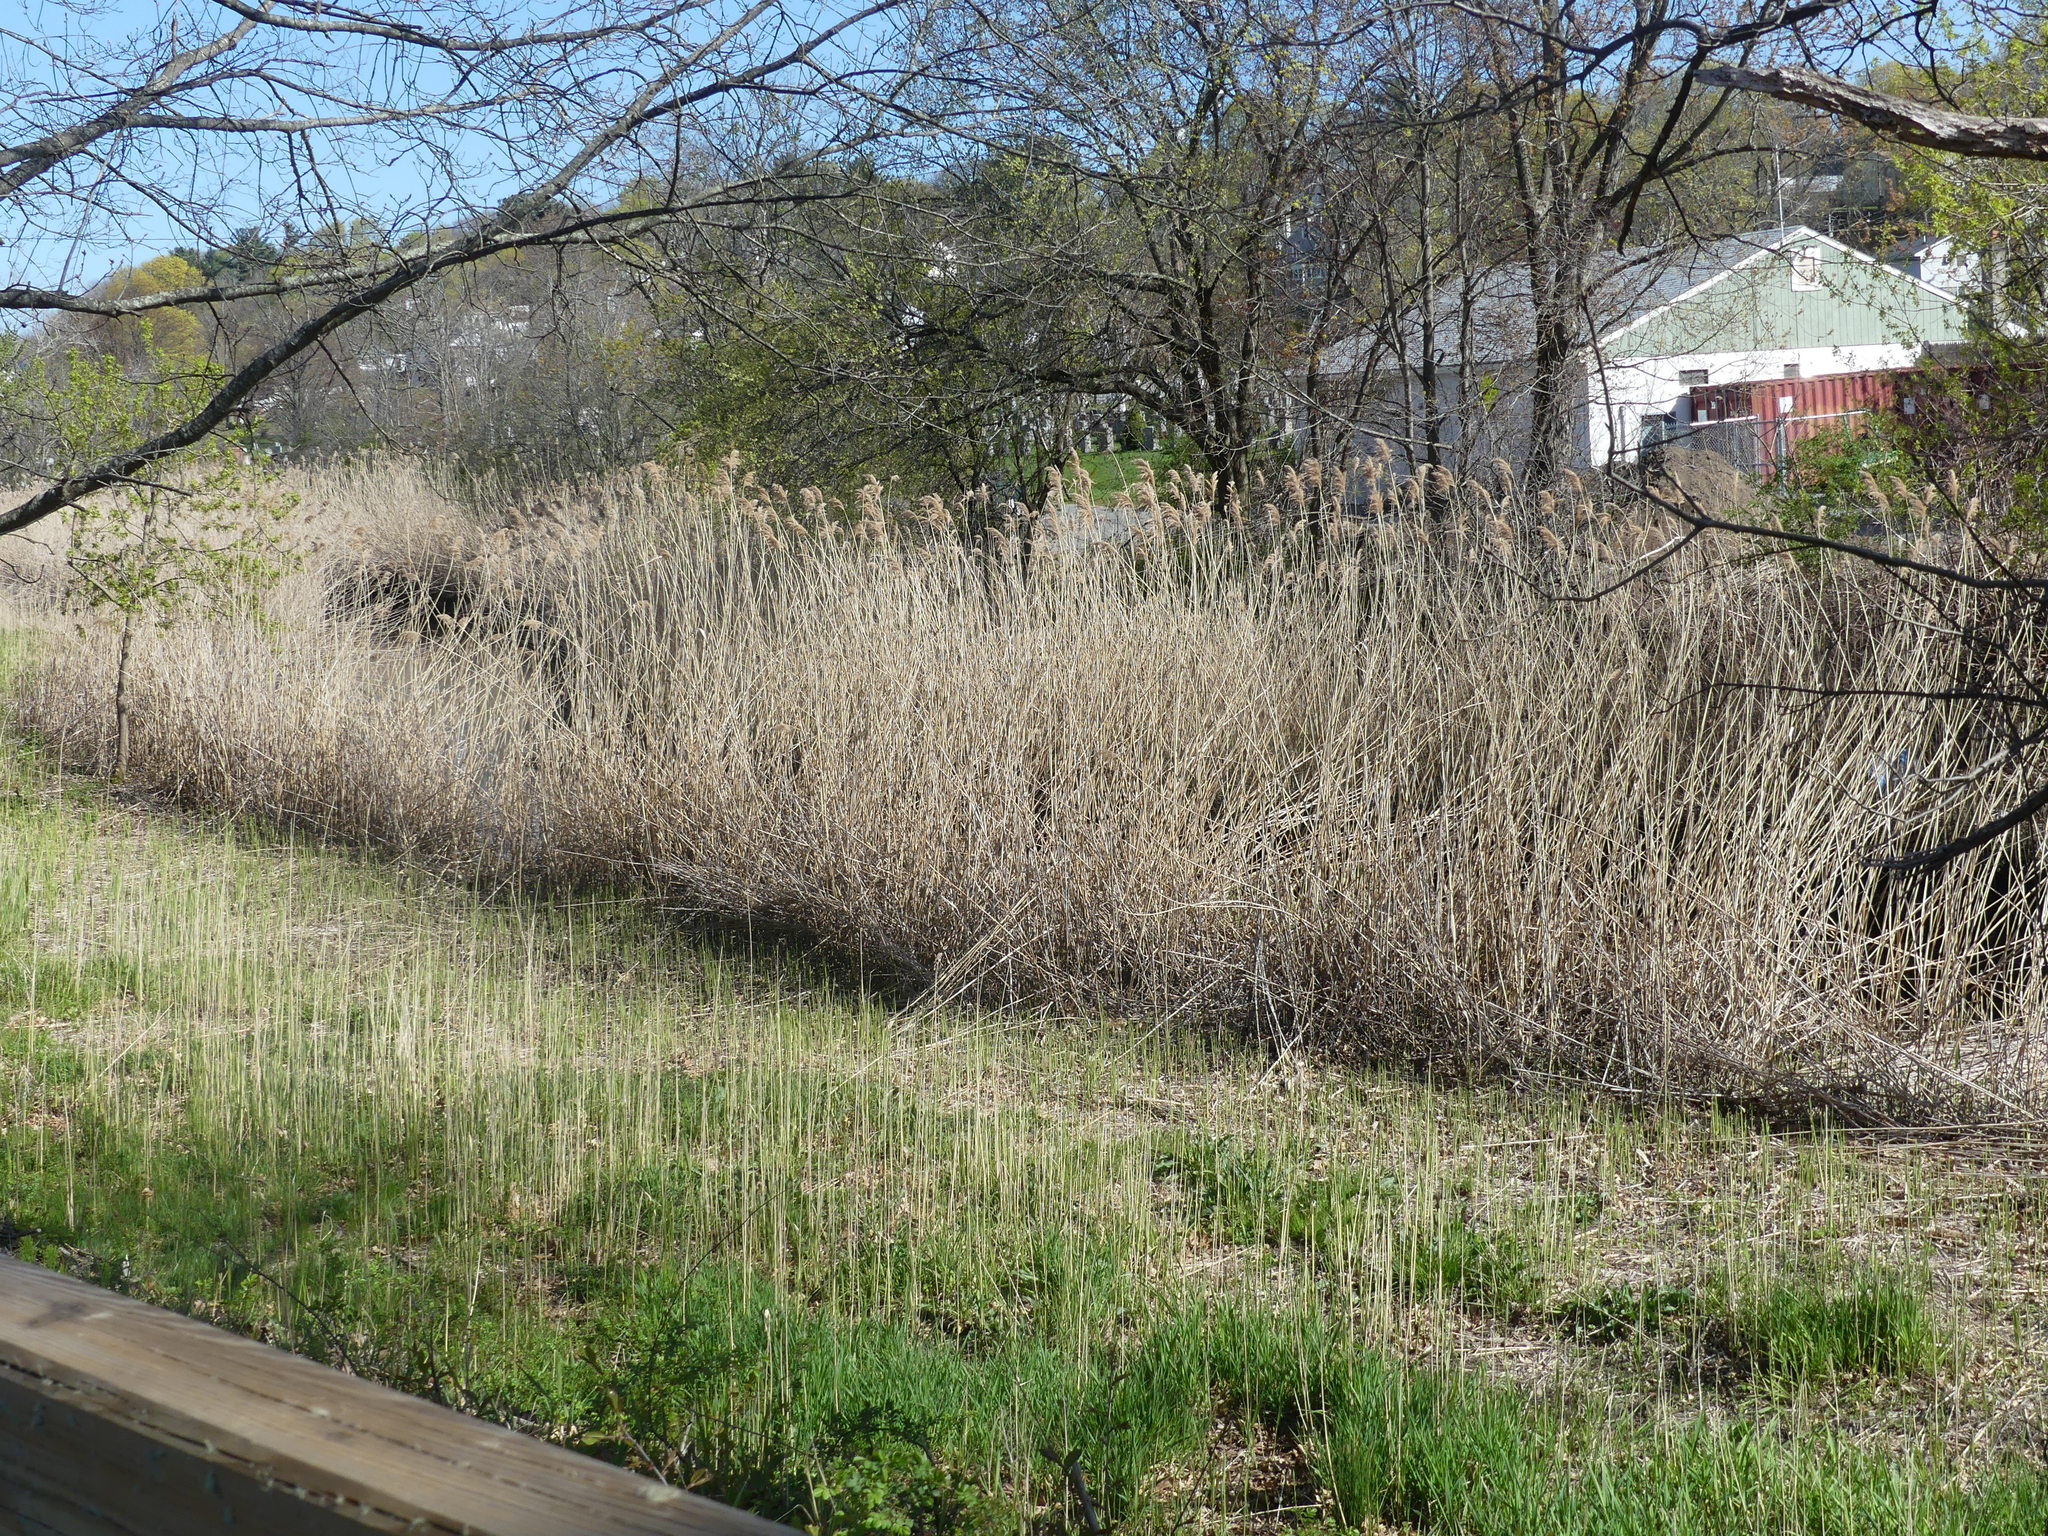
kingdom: Plantae
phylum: Tracheophyta
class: Liliopsida
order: Poales
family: Poaceae
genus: Phragmites
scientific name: Phragmites australis
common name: Common reed
